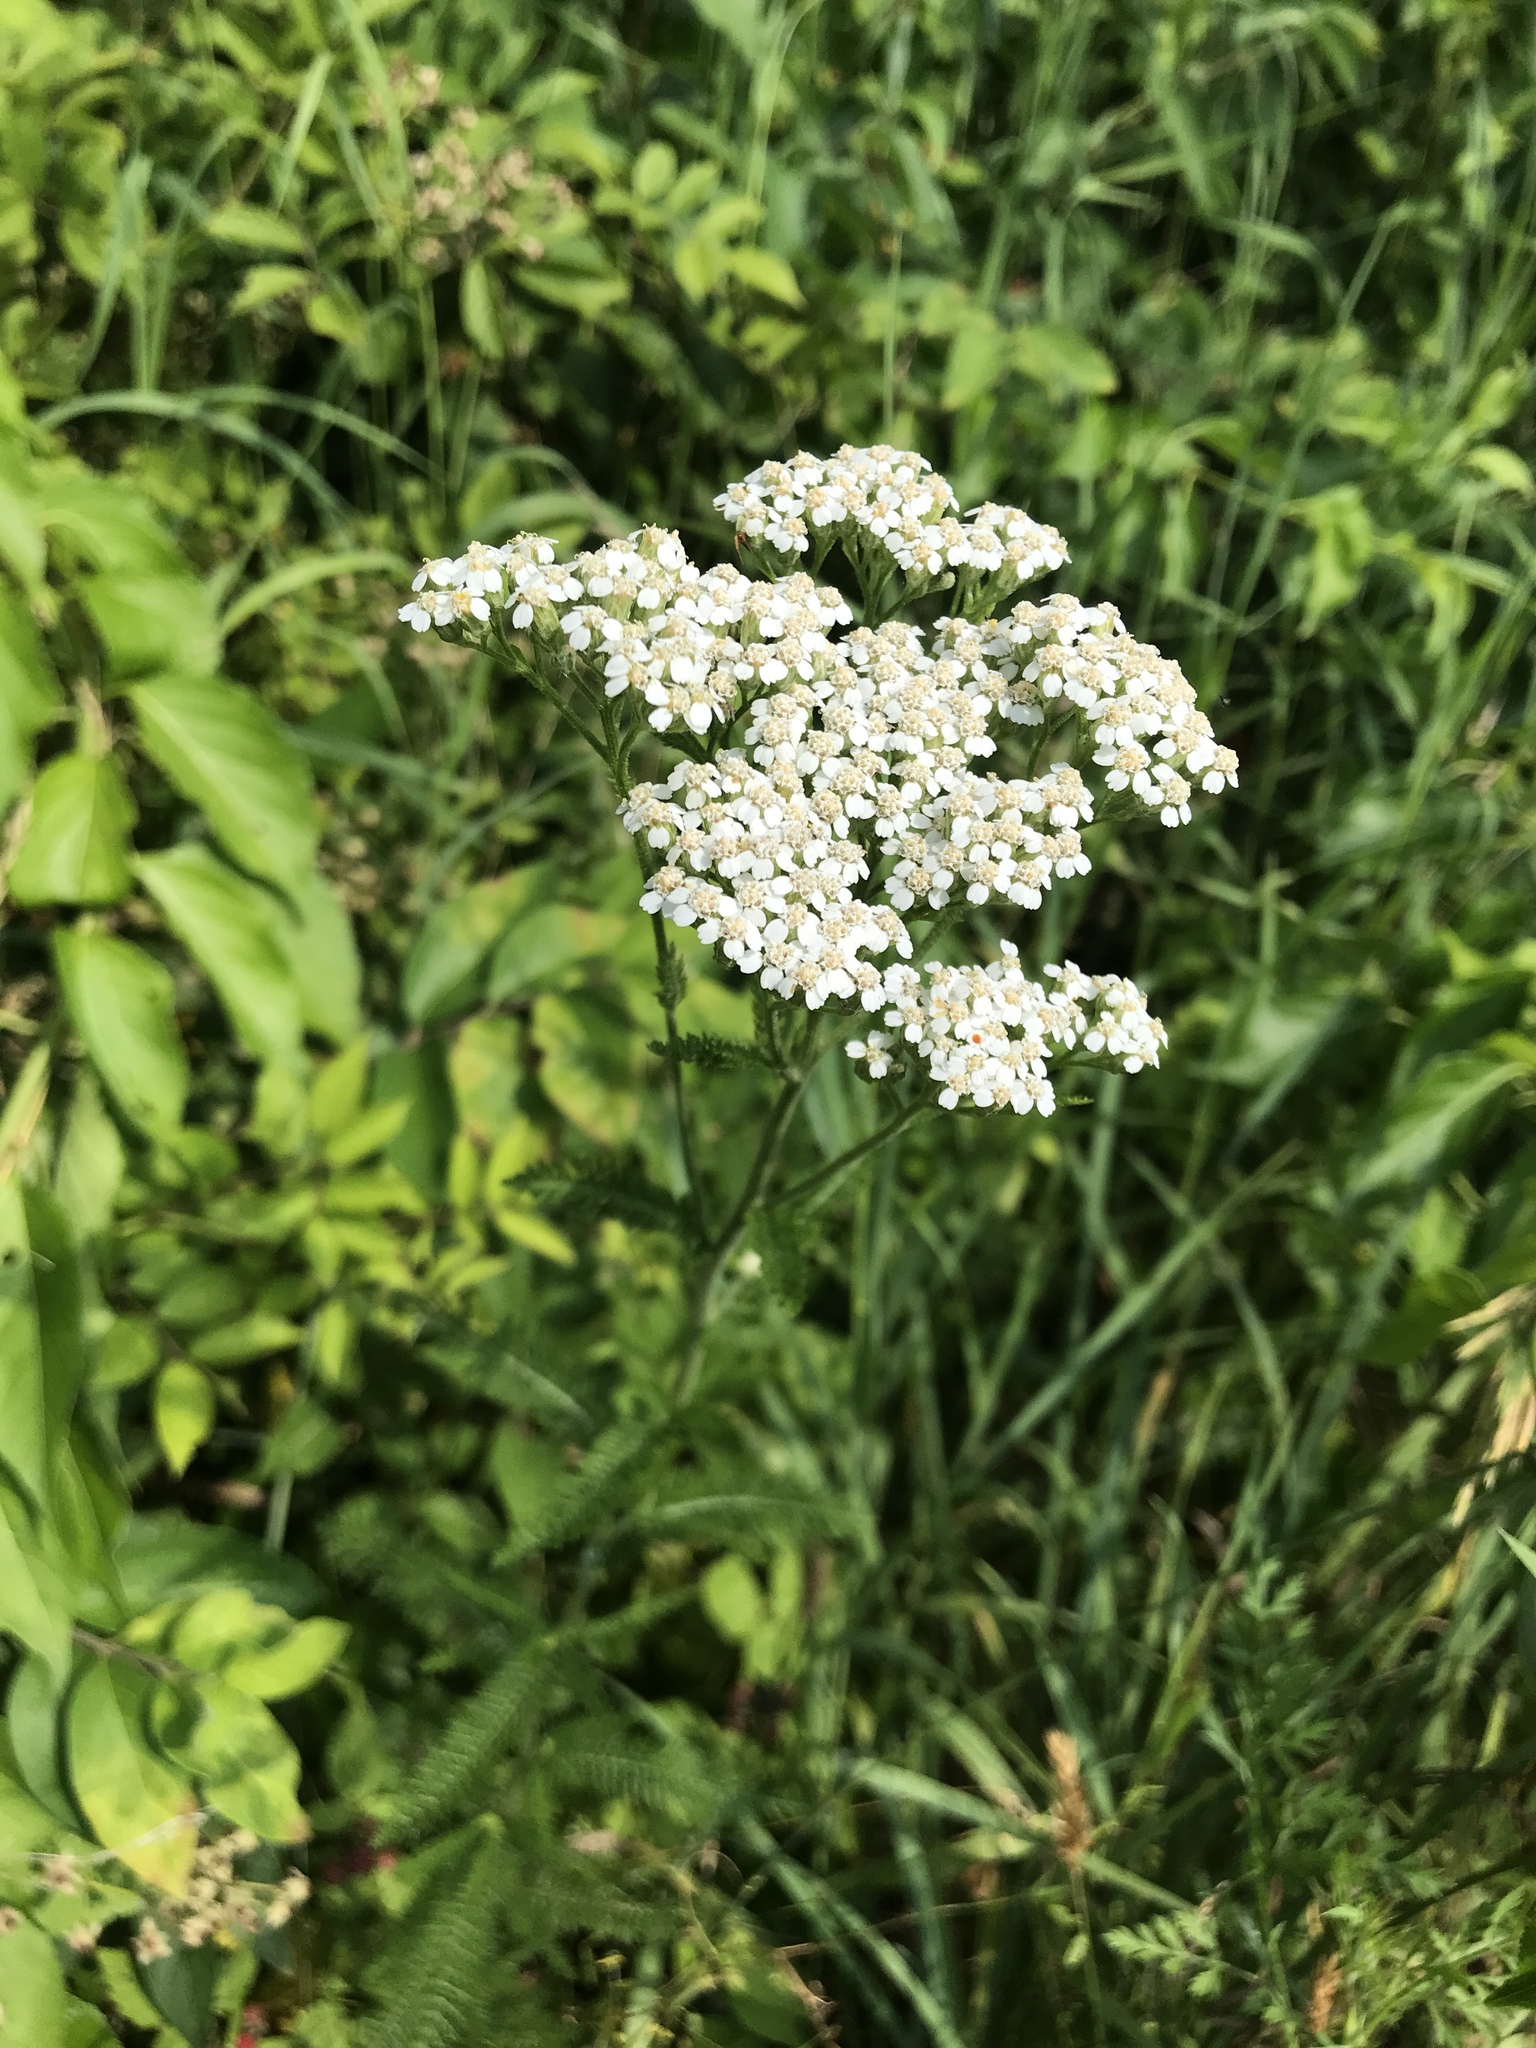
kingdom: Plantae
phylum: Tracheophyta
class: Magnoliopsida
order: Asterales
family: Asteraceae
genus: Achillea
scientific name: Achillea millefolium
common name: Yarrow
